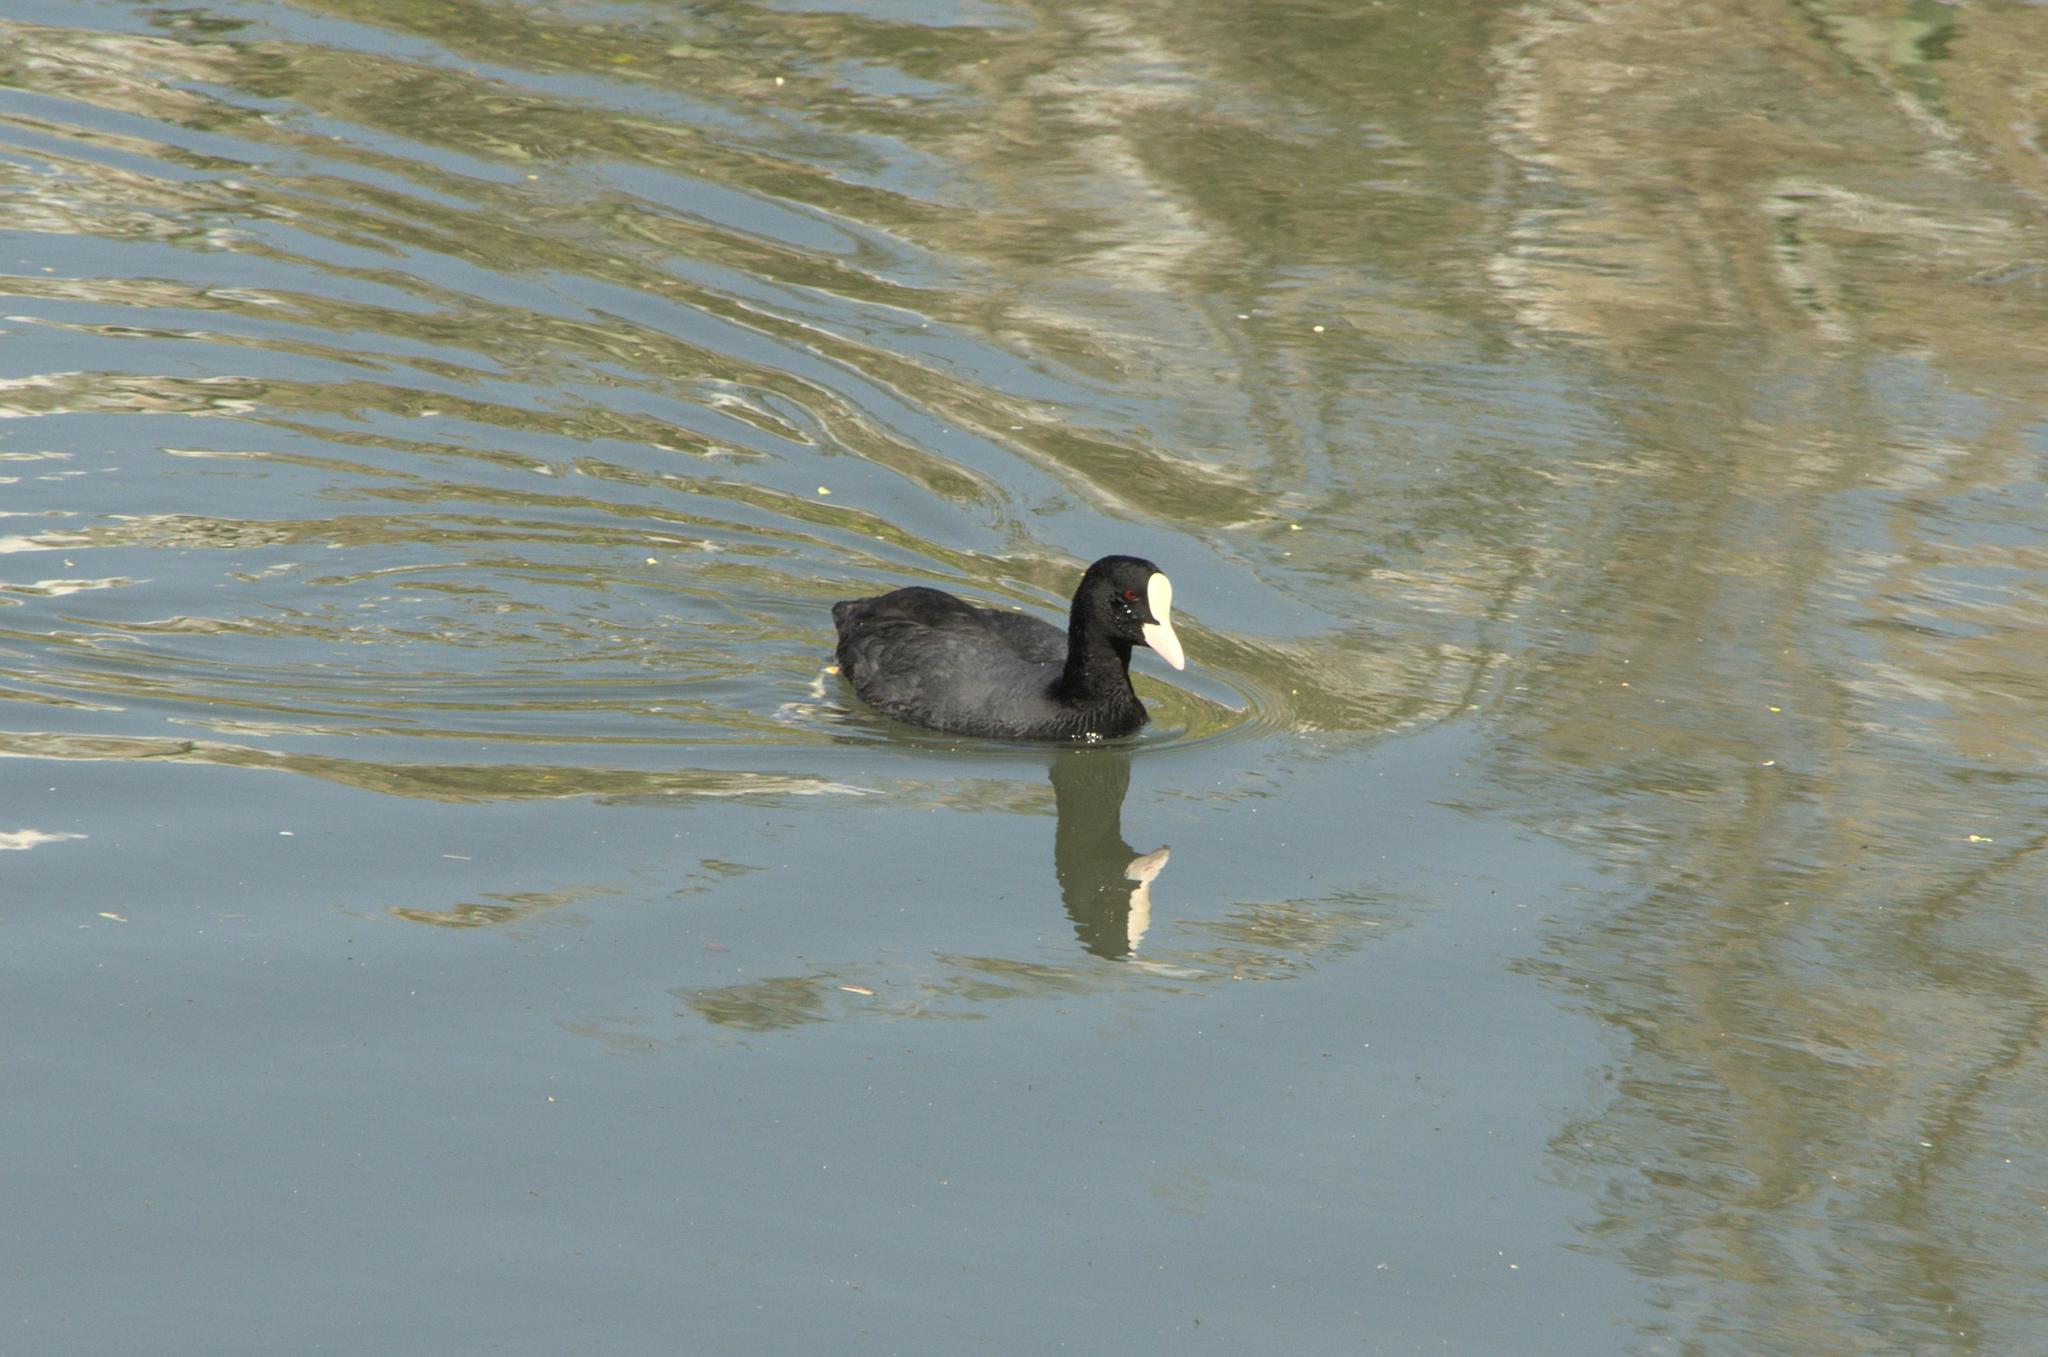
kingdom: Animalia
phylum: Chordata
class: Aves
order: Gruiformes
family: Rallidae
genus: Fulica
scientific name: Fulica atra
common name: Eurasian coot
